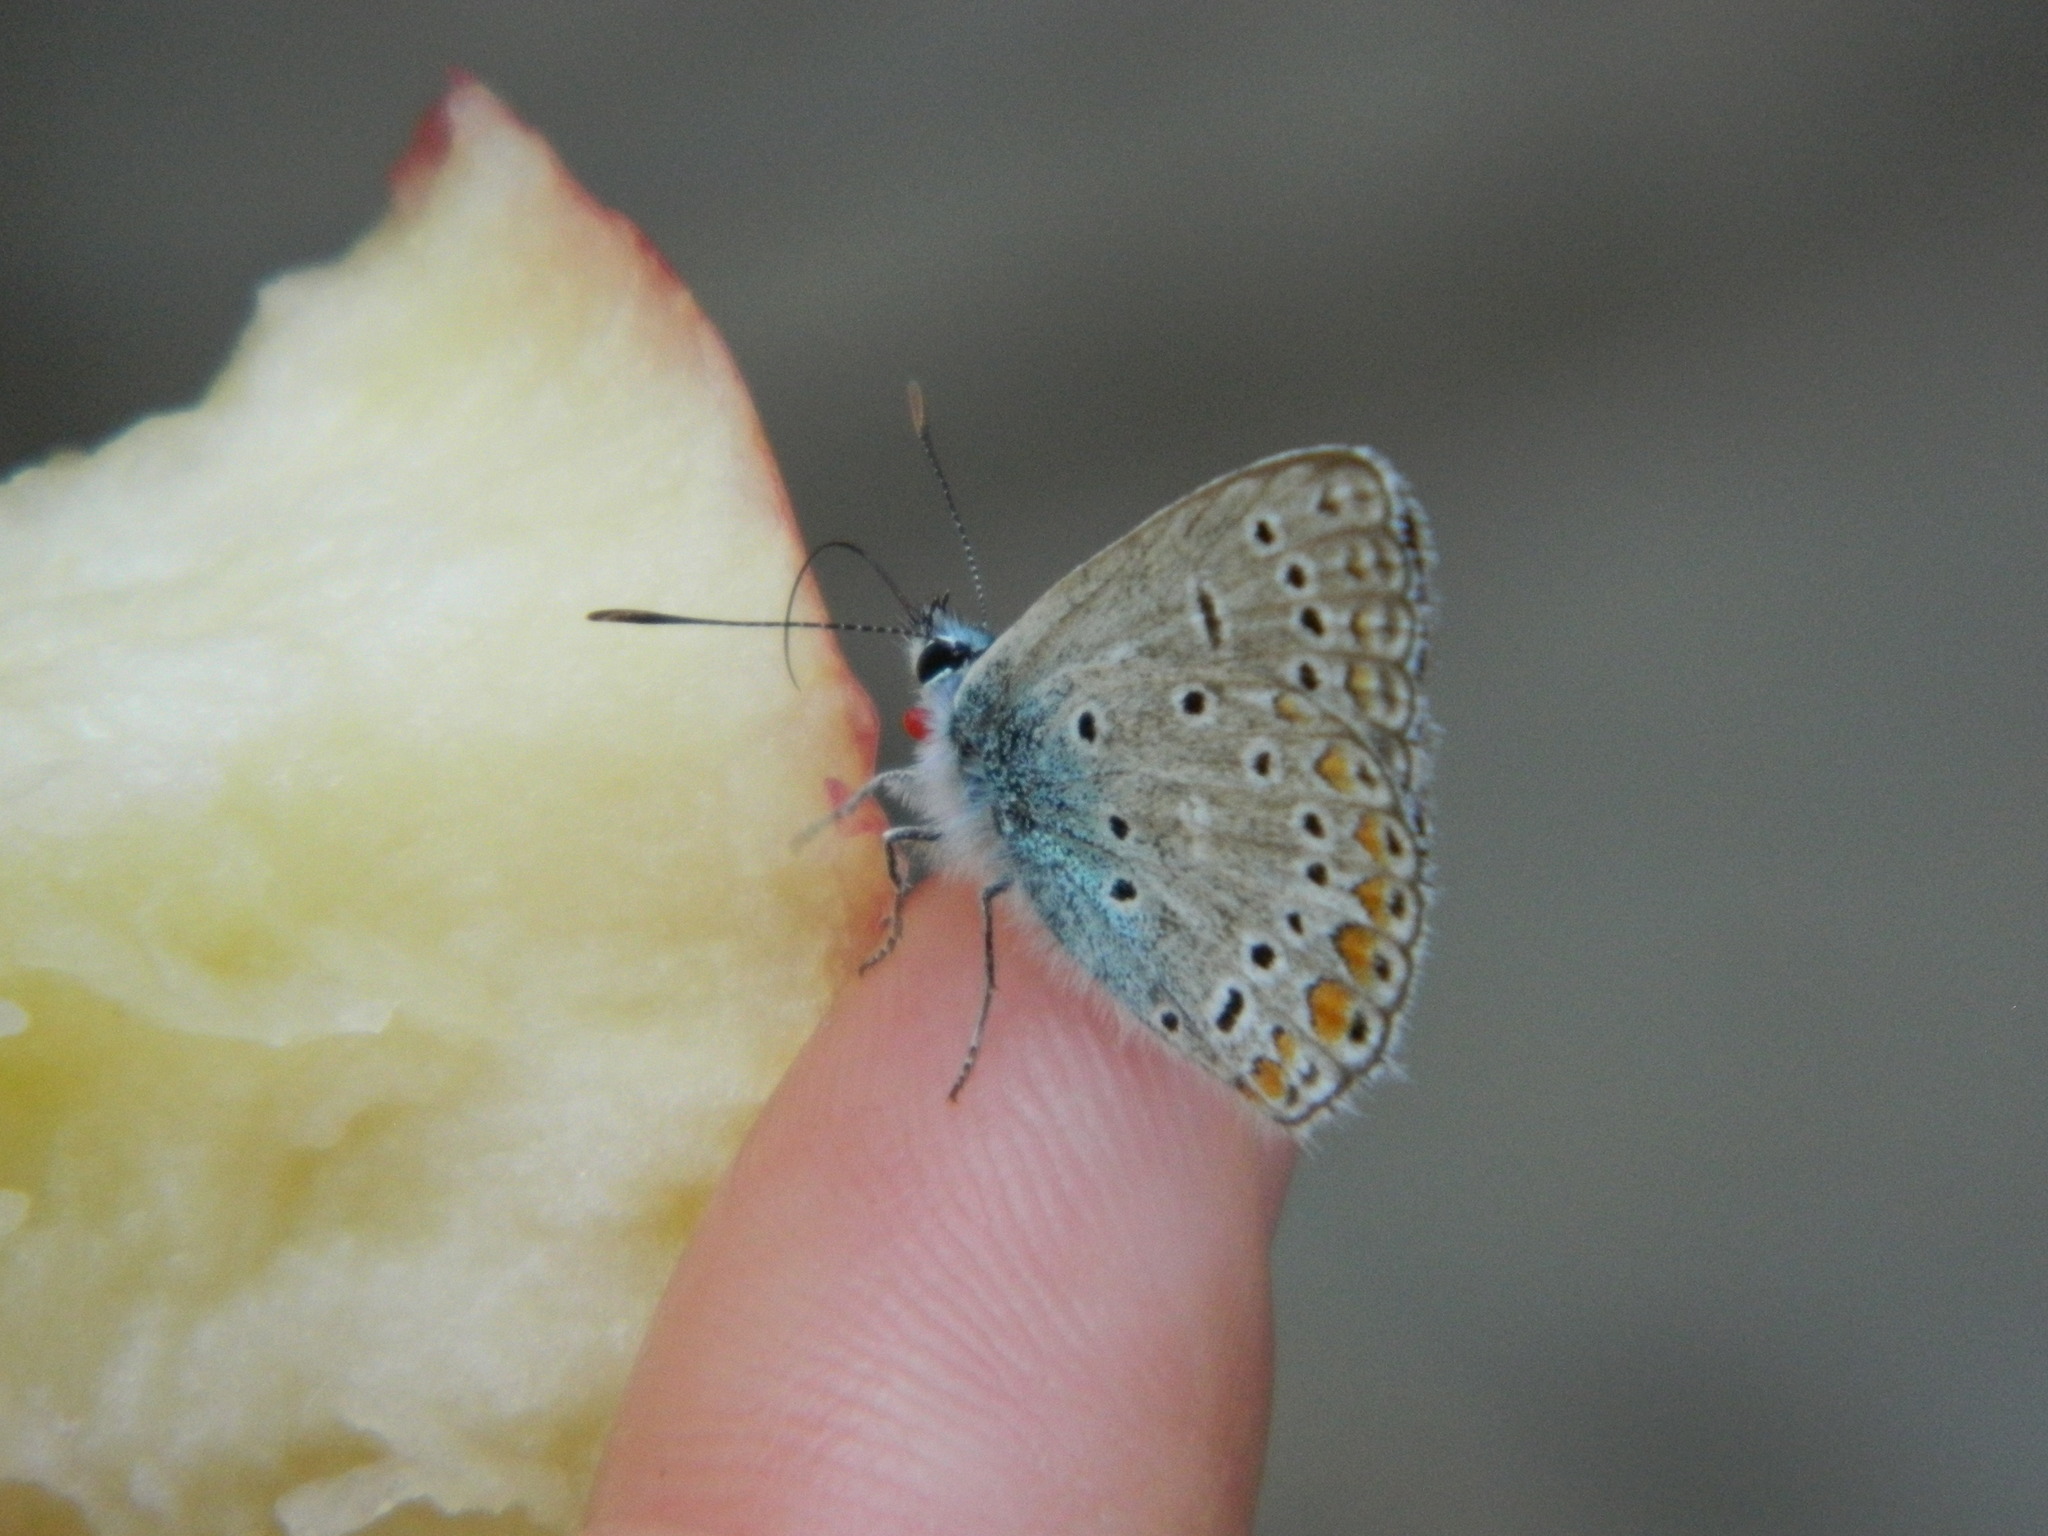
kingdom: Animalia
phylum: Arthropoda
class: Insecta
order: Lepidoptera
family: Lycaenidae
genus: Polyommatus
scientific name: Polyommatus icarus
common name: Common blue
